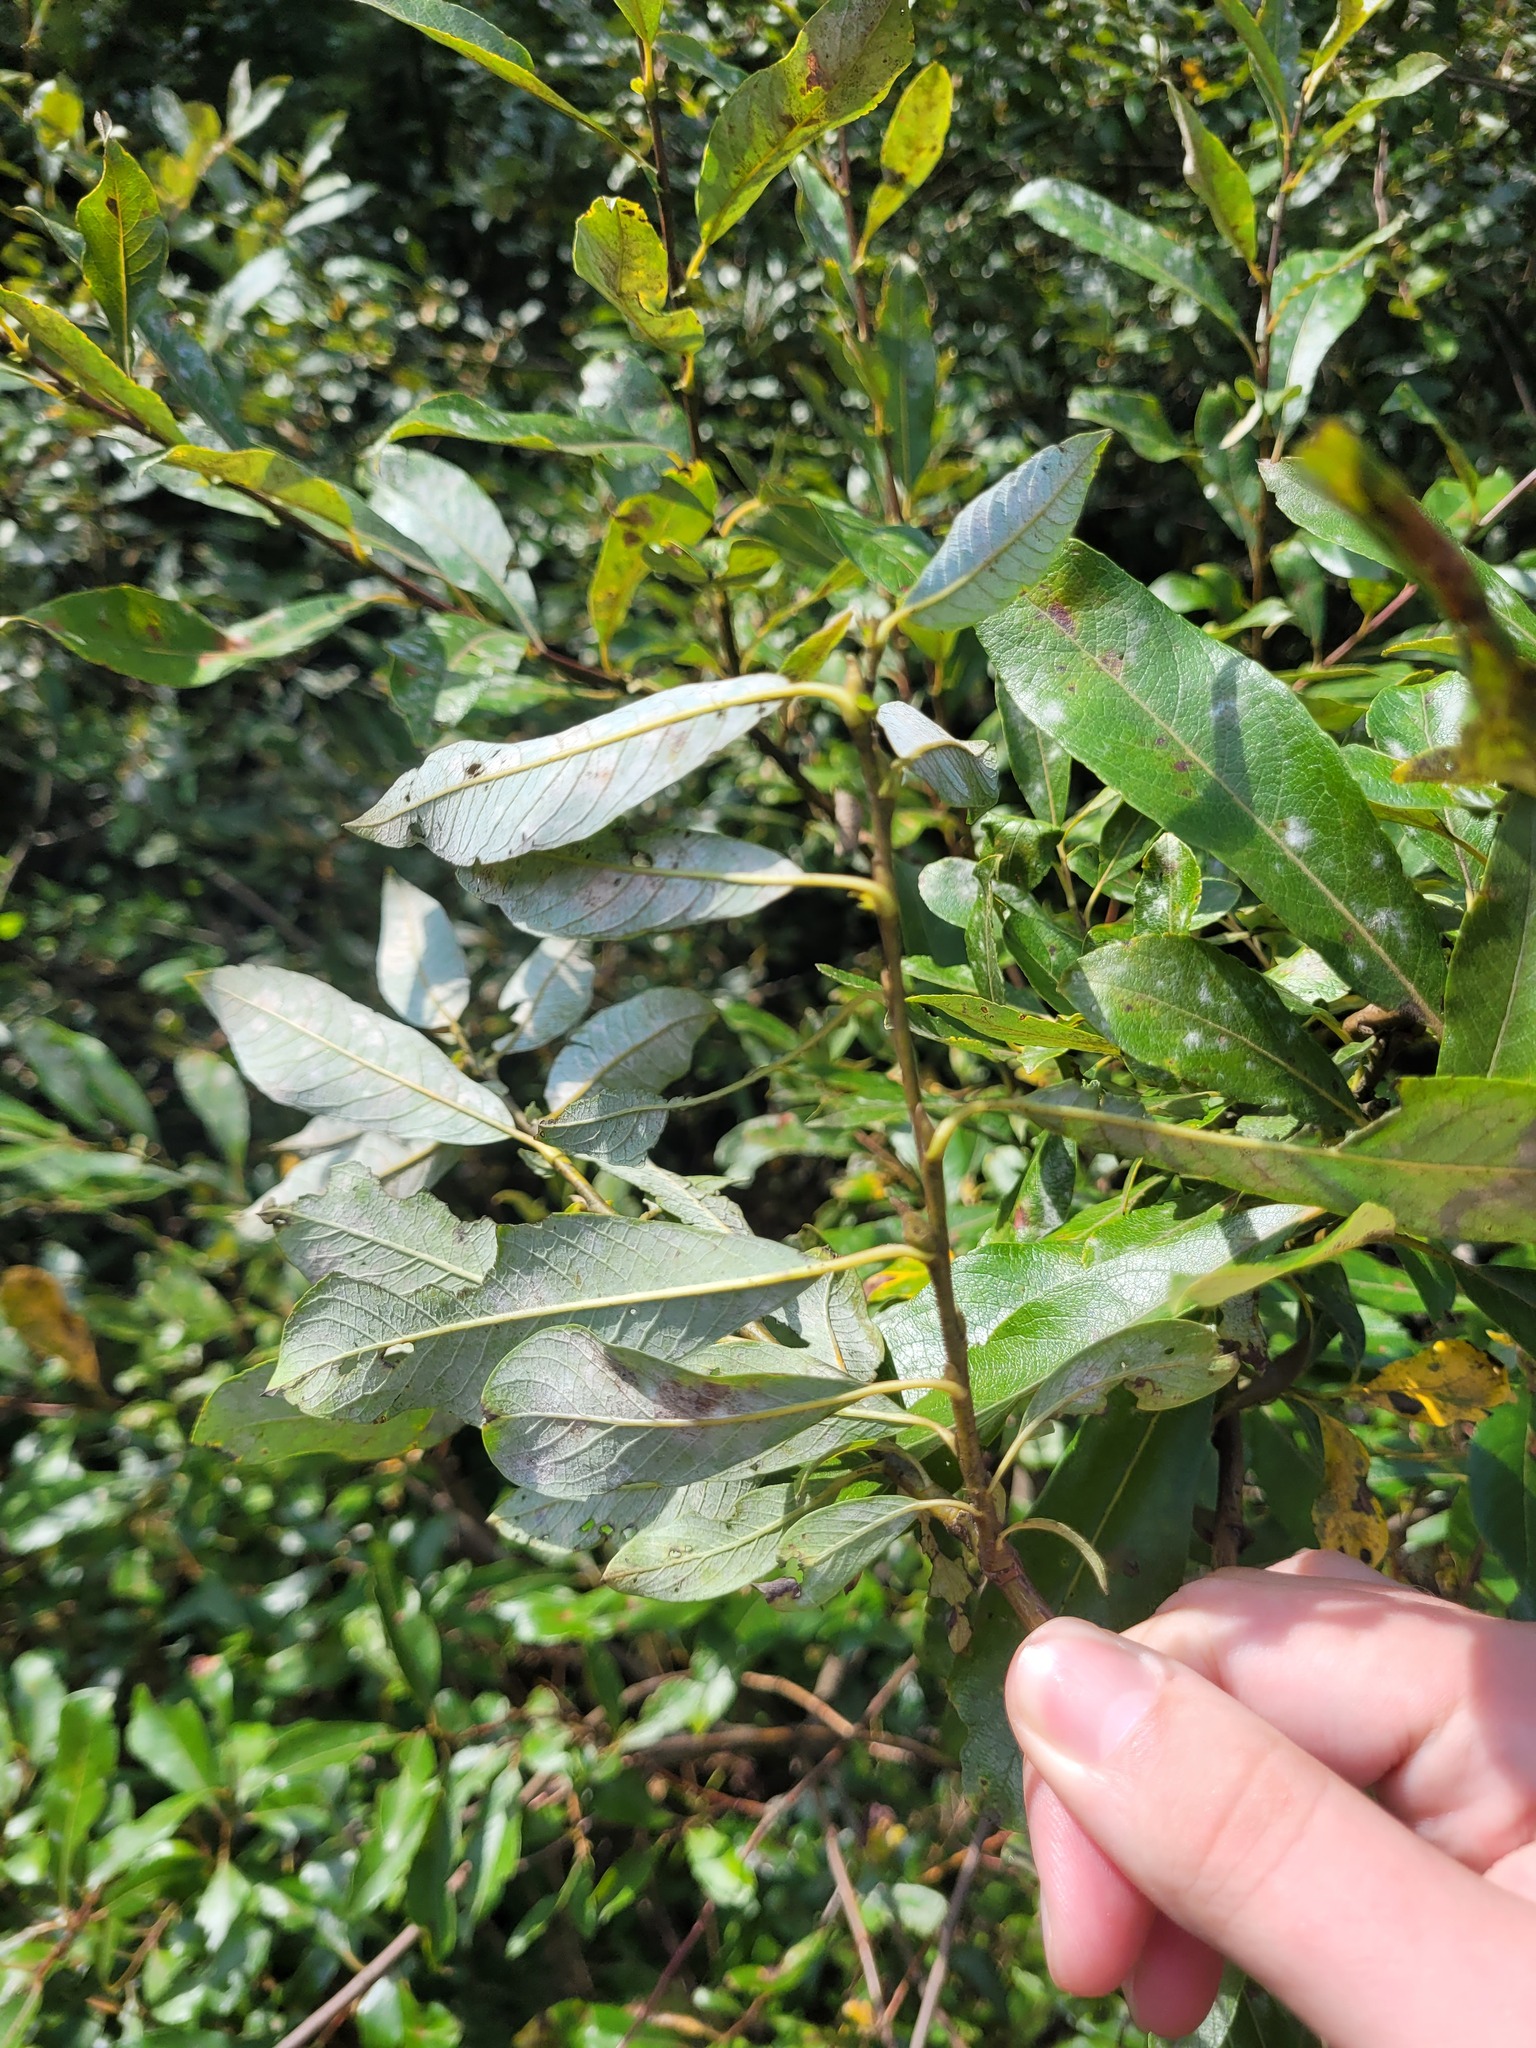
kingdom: Plantae
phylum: Tracheophyta
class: Magnoliopsida
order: Malpighiales
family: Salicaceae
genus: Salix
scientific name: Salix myrsinifolia
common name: Dark-leaved willow
